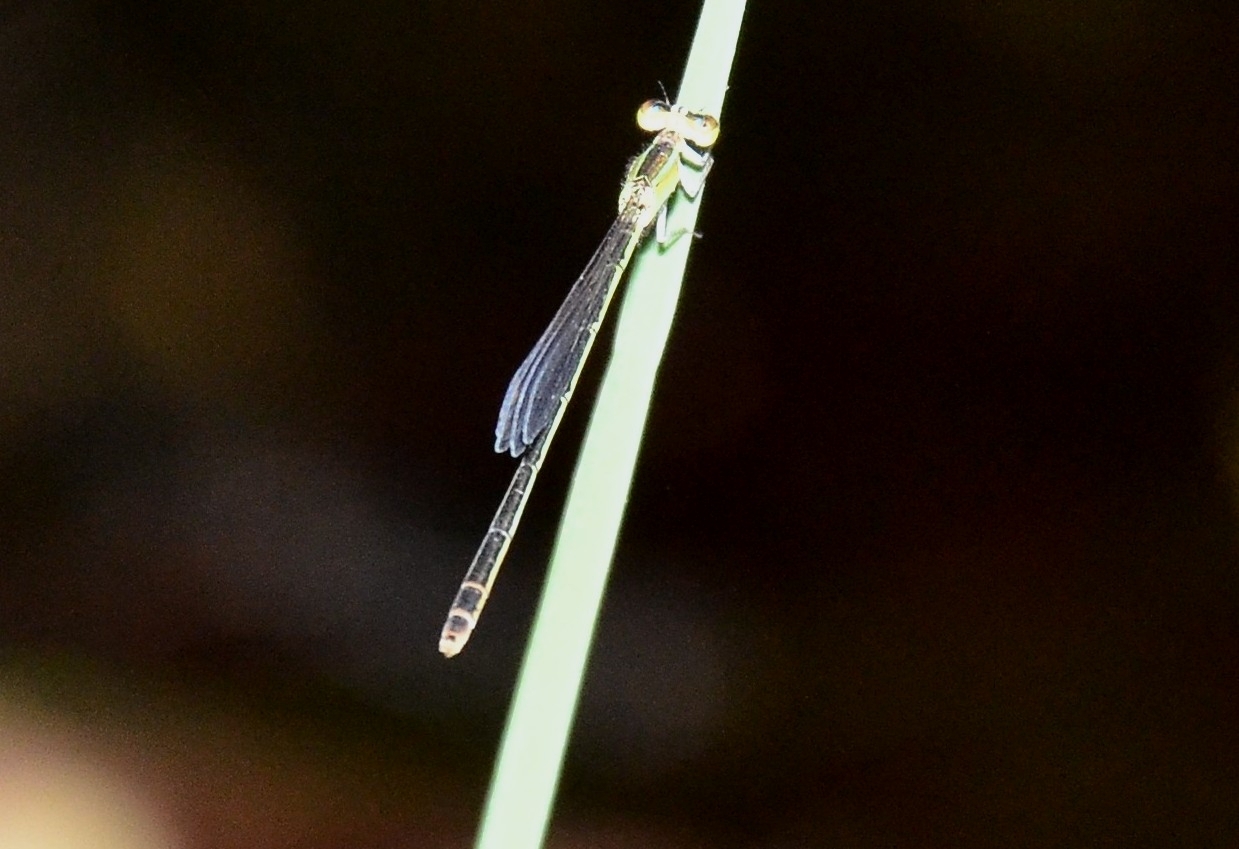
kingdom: Animalia
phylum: Arthropoda
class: Insecta
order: Odonata
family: Coenagrionidae
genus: Agriocnemis
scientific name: Agriocnemis pygmaea
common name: Pygmy wisp
